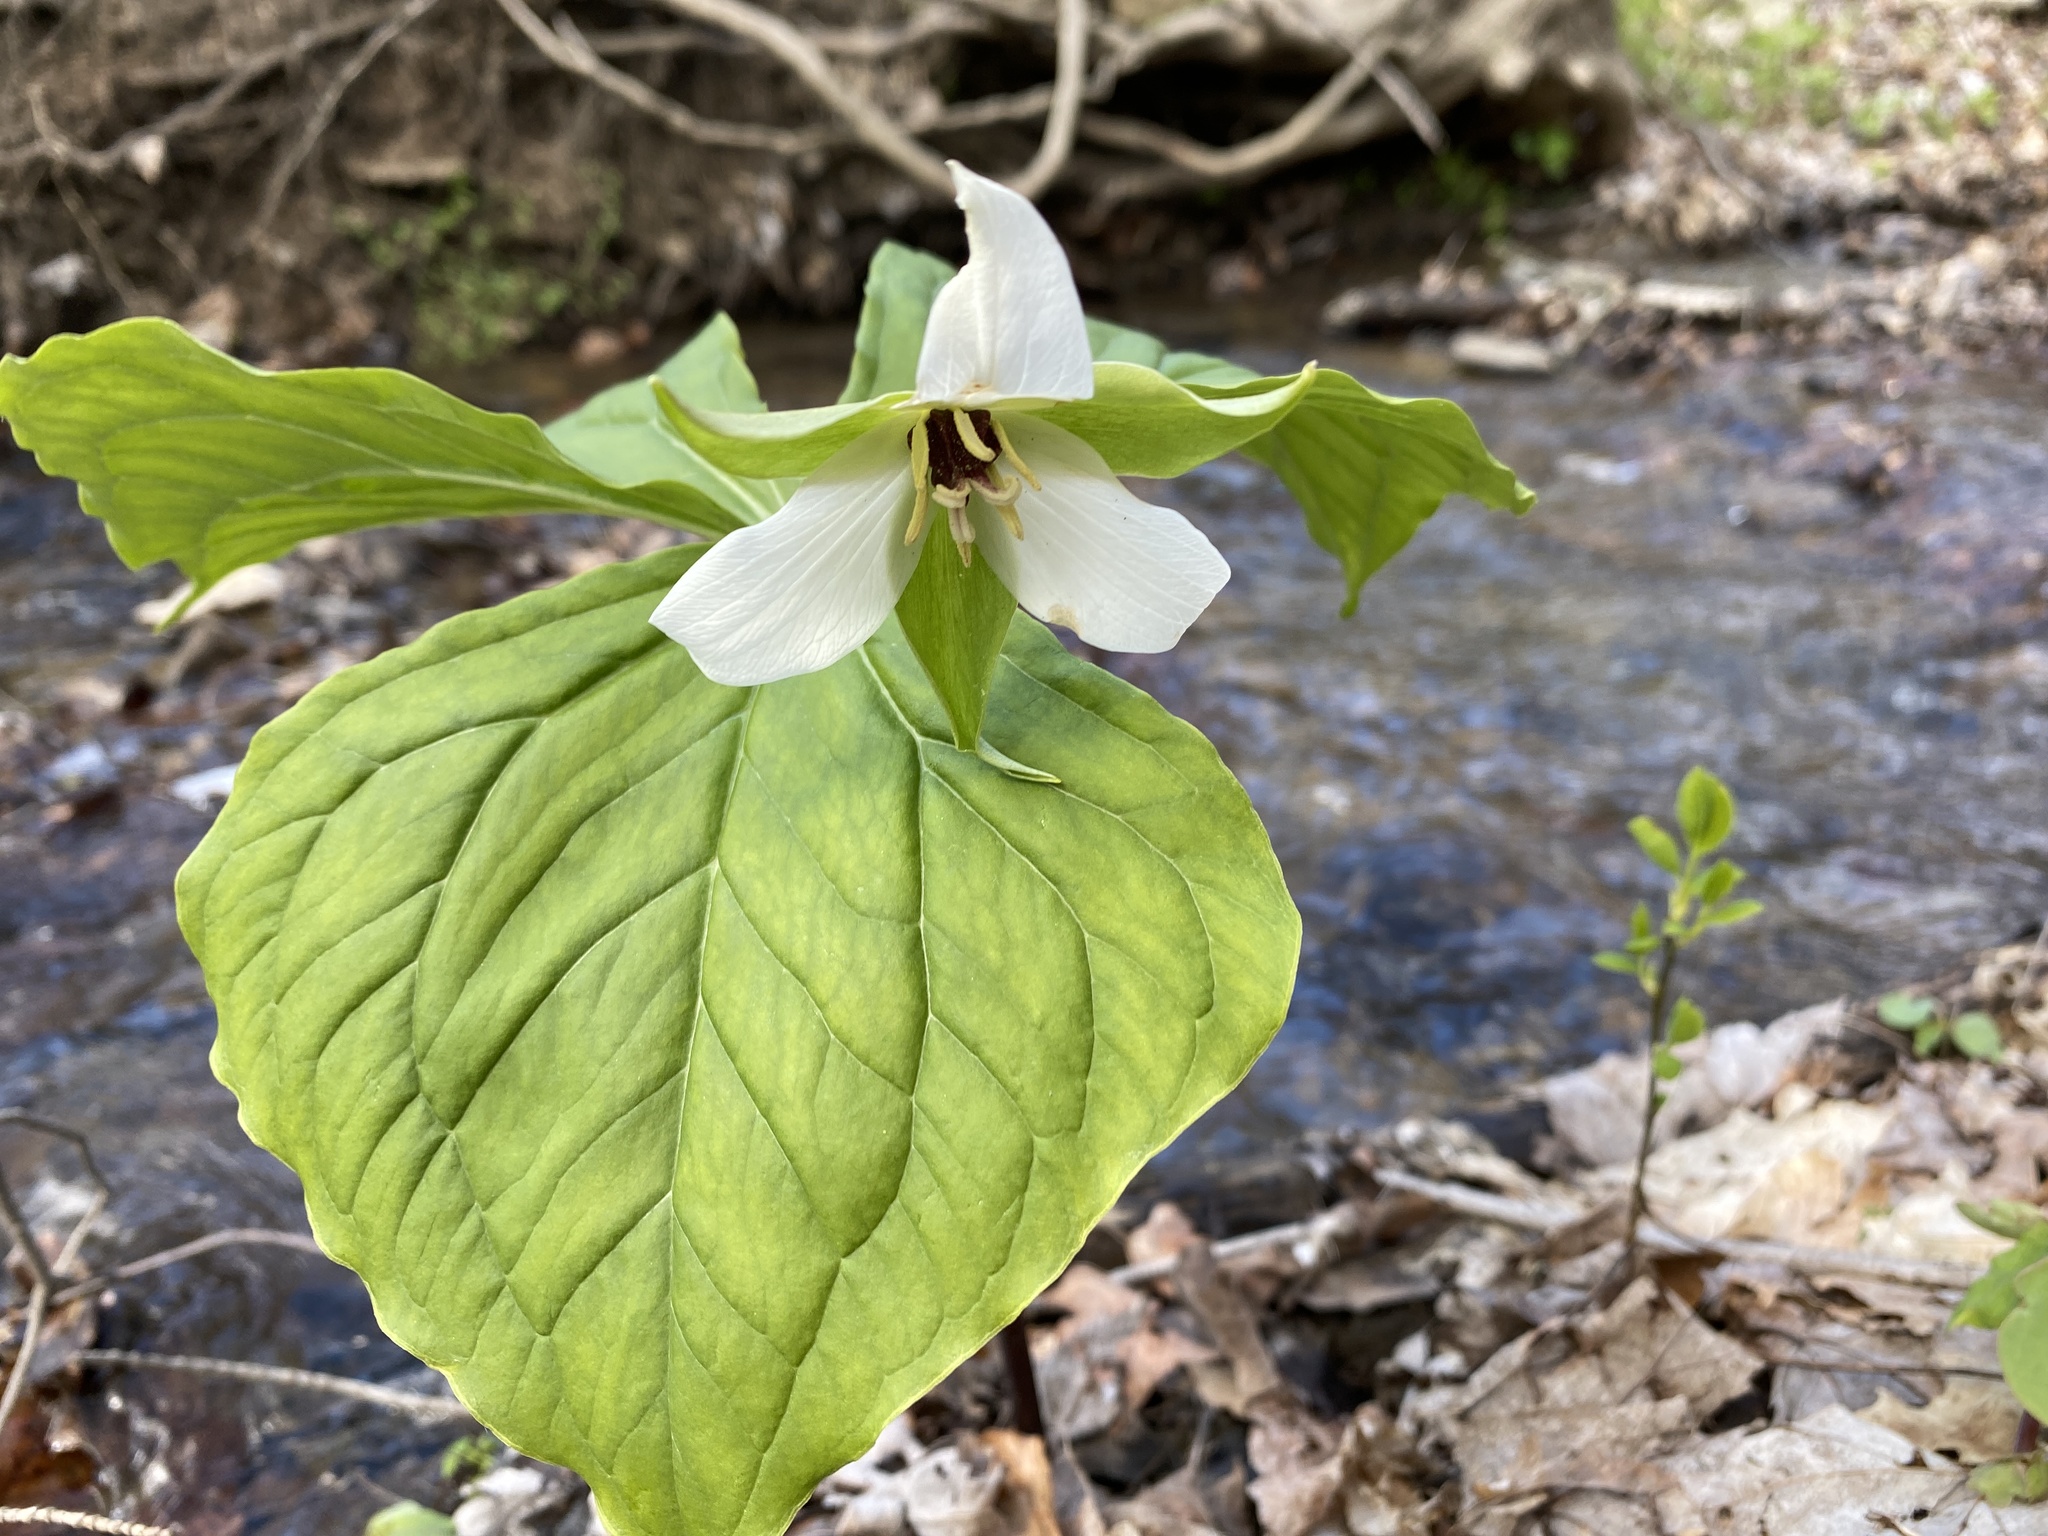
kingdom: Plantae
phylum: Tracheophyta
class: Liliopsida
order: Liliales
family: Melanthiaceae
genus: Trillium
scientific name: Trillium erectum
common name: Purple trillium
